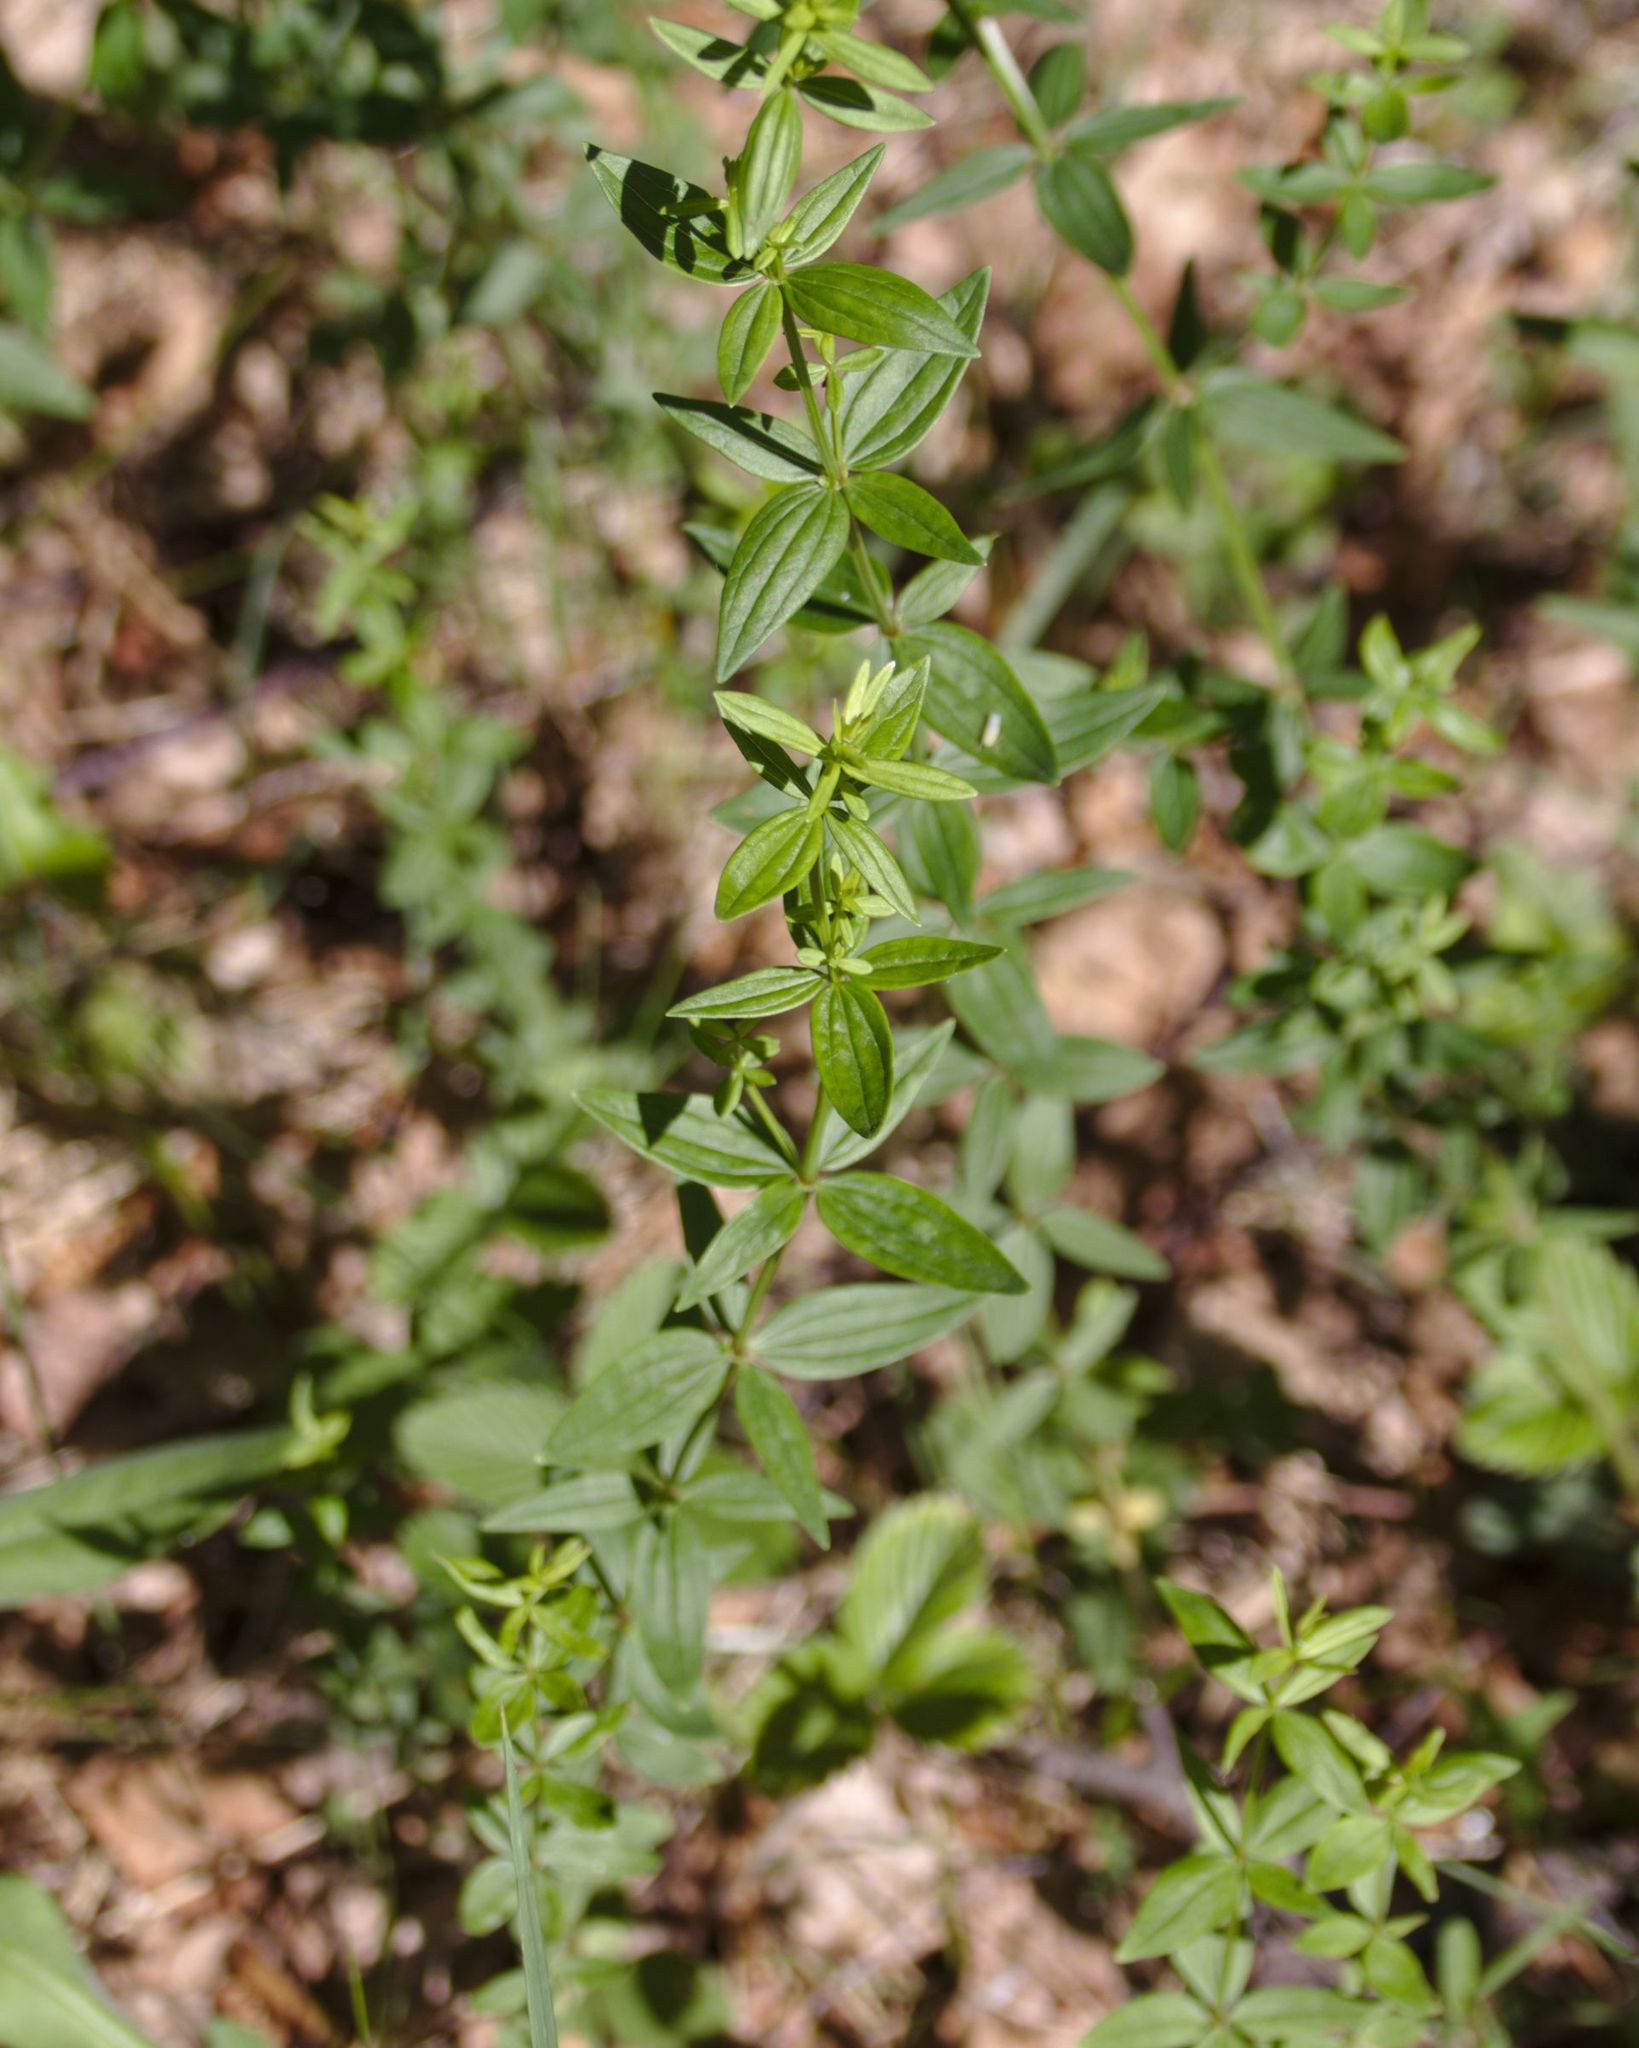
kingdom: Plantae
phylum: Tracheophyta
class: Magnoliopsida
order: Gentianales
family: Rubiaceae
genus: Galium
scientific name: Galium boreale
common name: Northern bedstraw
